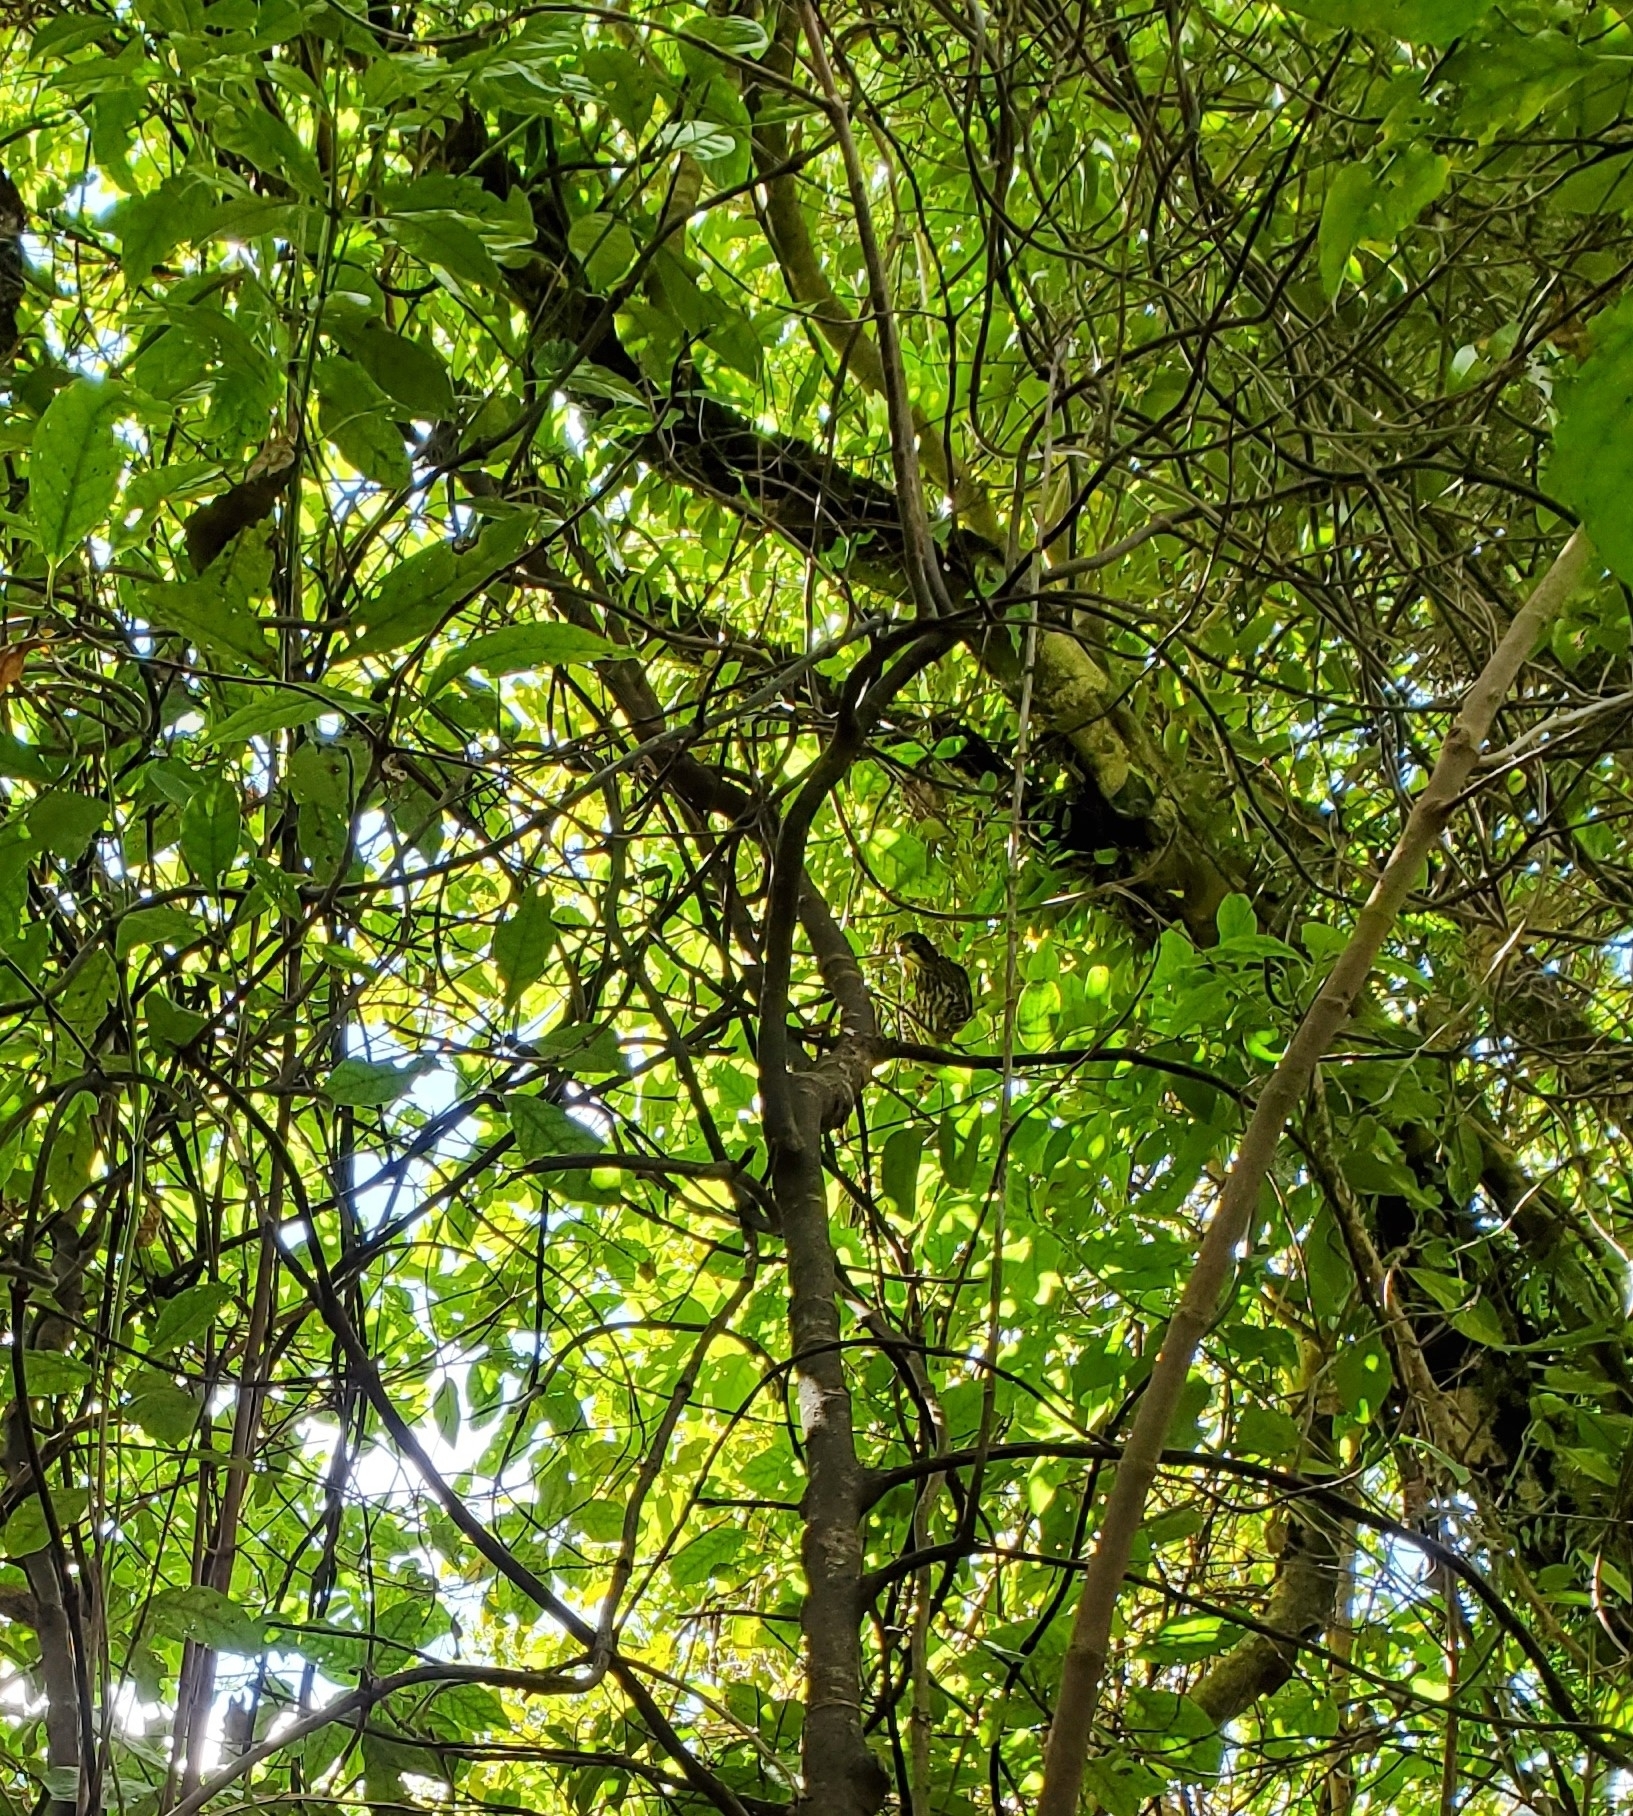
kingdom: Animalia
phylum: Chordata
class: Aves
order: Columbiformes
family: Columbidae
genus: Hemiphaga
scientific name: Hemiphaga novaeseelandiae
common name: New zealand pigeon
